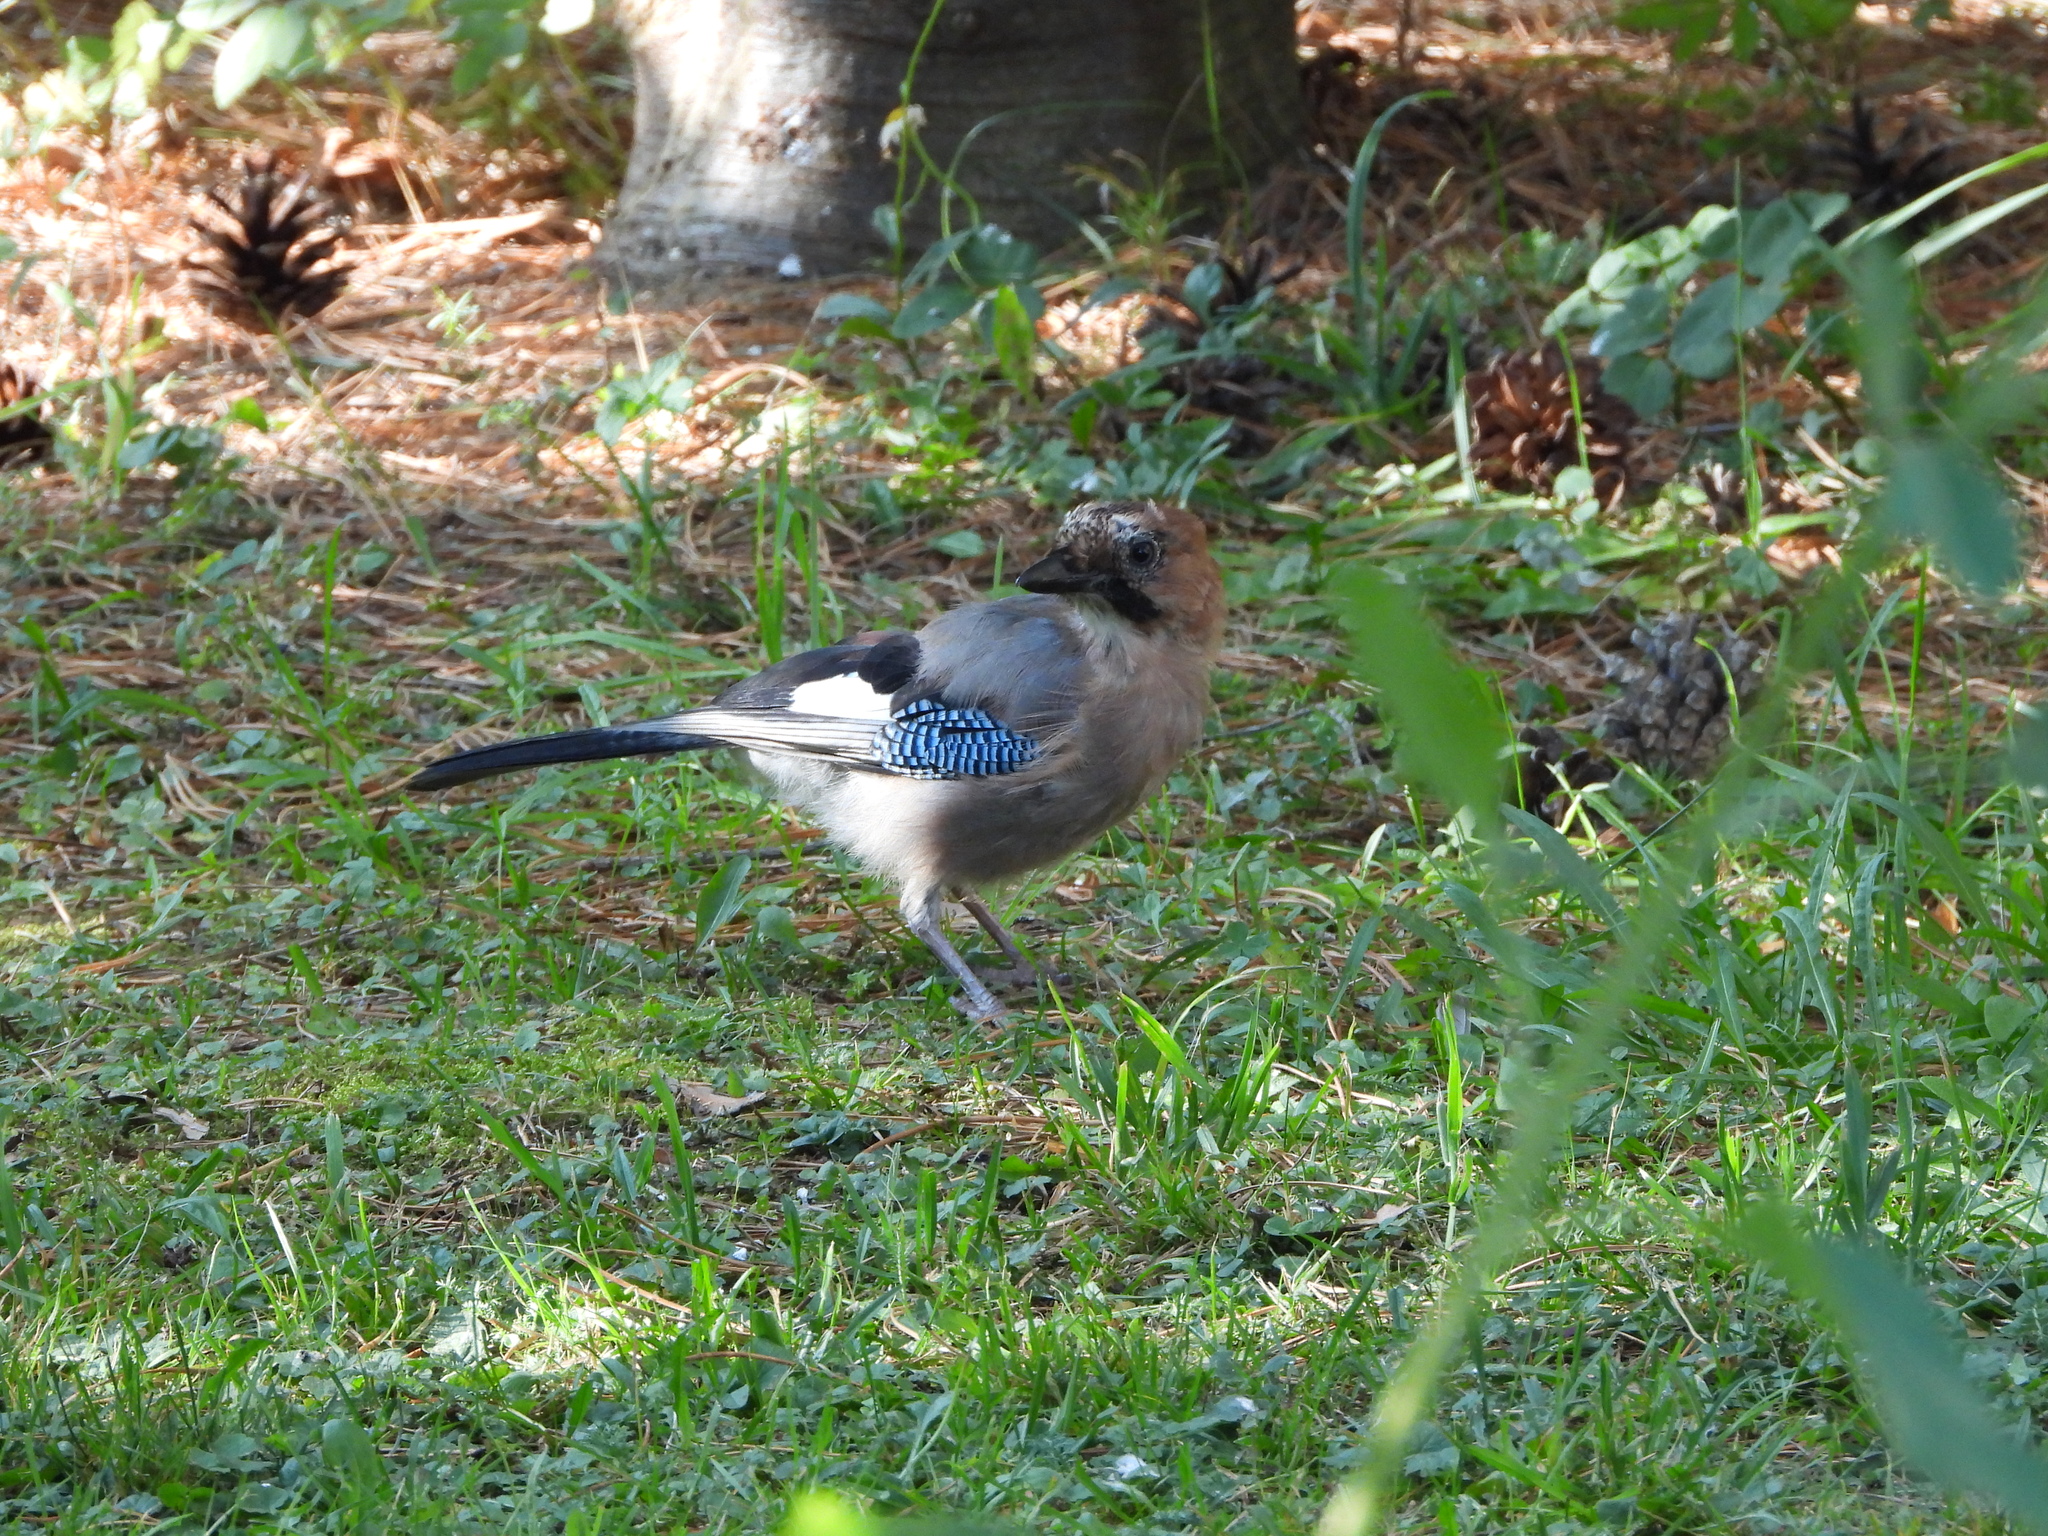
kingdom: Animalia
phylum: Chordata
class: Aves
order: Passeriformes
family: Corvidae
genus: Garrulus
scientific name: Garrulus glandarius
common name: Eurasian jay
